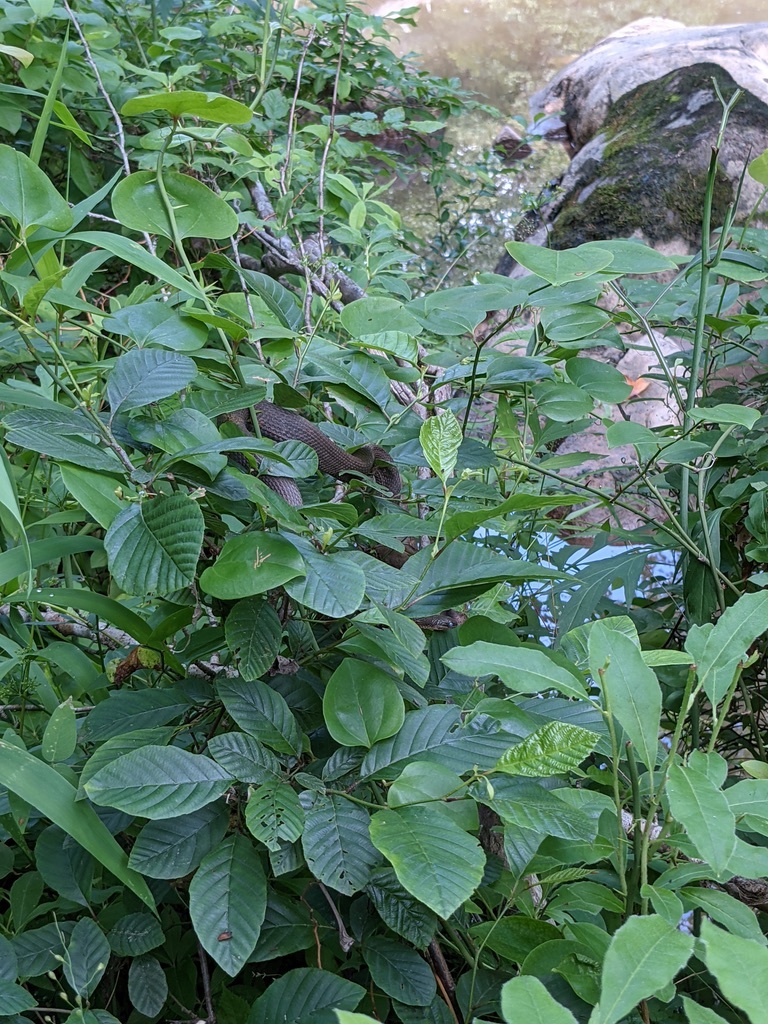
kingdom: Animalia
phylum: Chordata
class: Squamata
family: Colubridae
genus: Regina
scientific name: Regina septemvittata
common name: Queen snake
